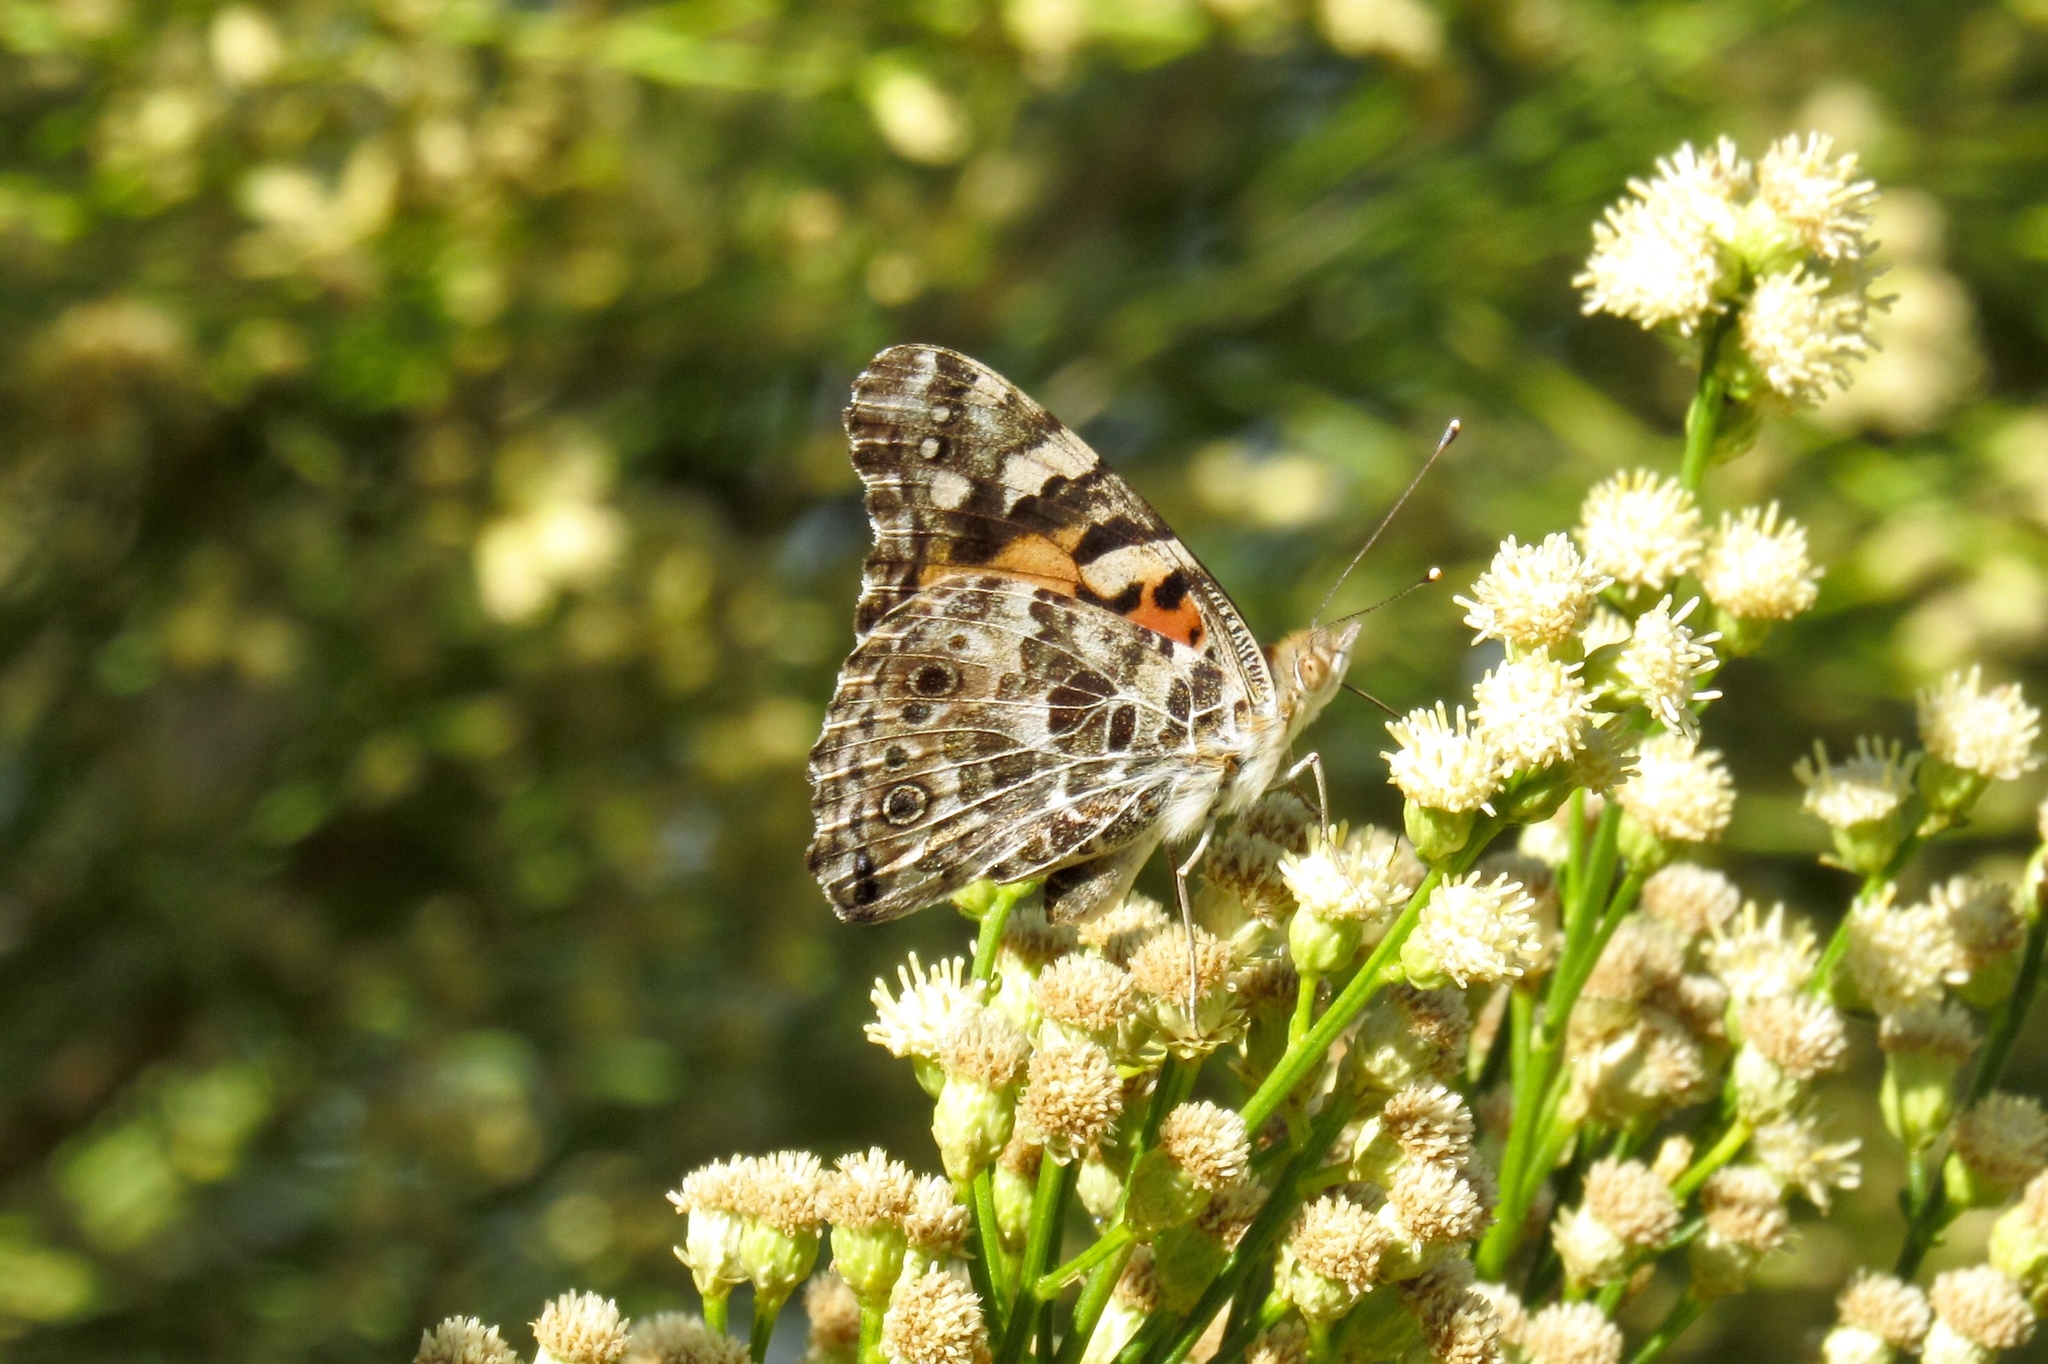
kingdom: Animalia
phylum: Arthropoda
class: Insecta
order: Lepidoptera
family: Nymphalidae
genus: Vanessa
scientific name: Vanessa cardui
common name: Painted lady
